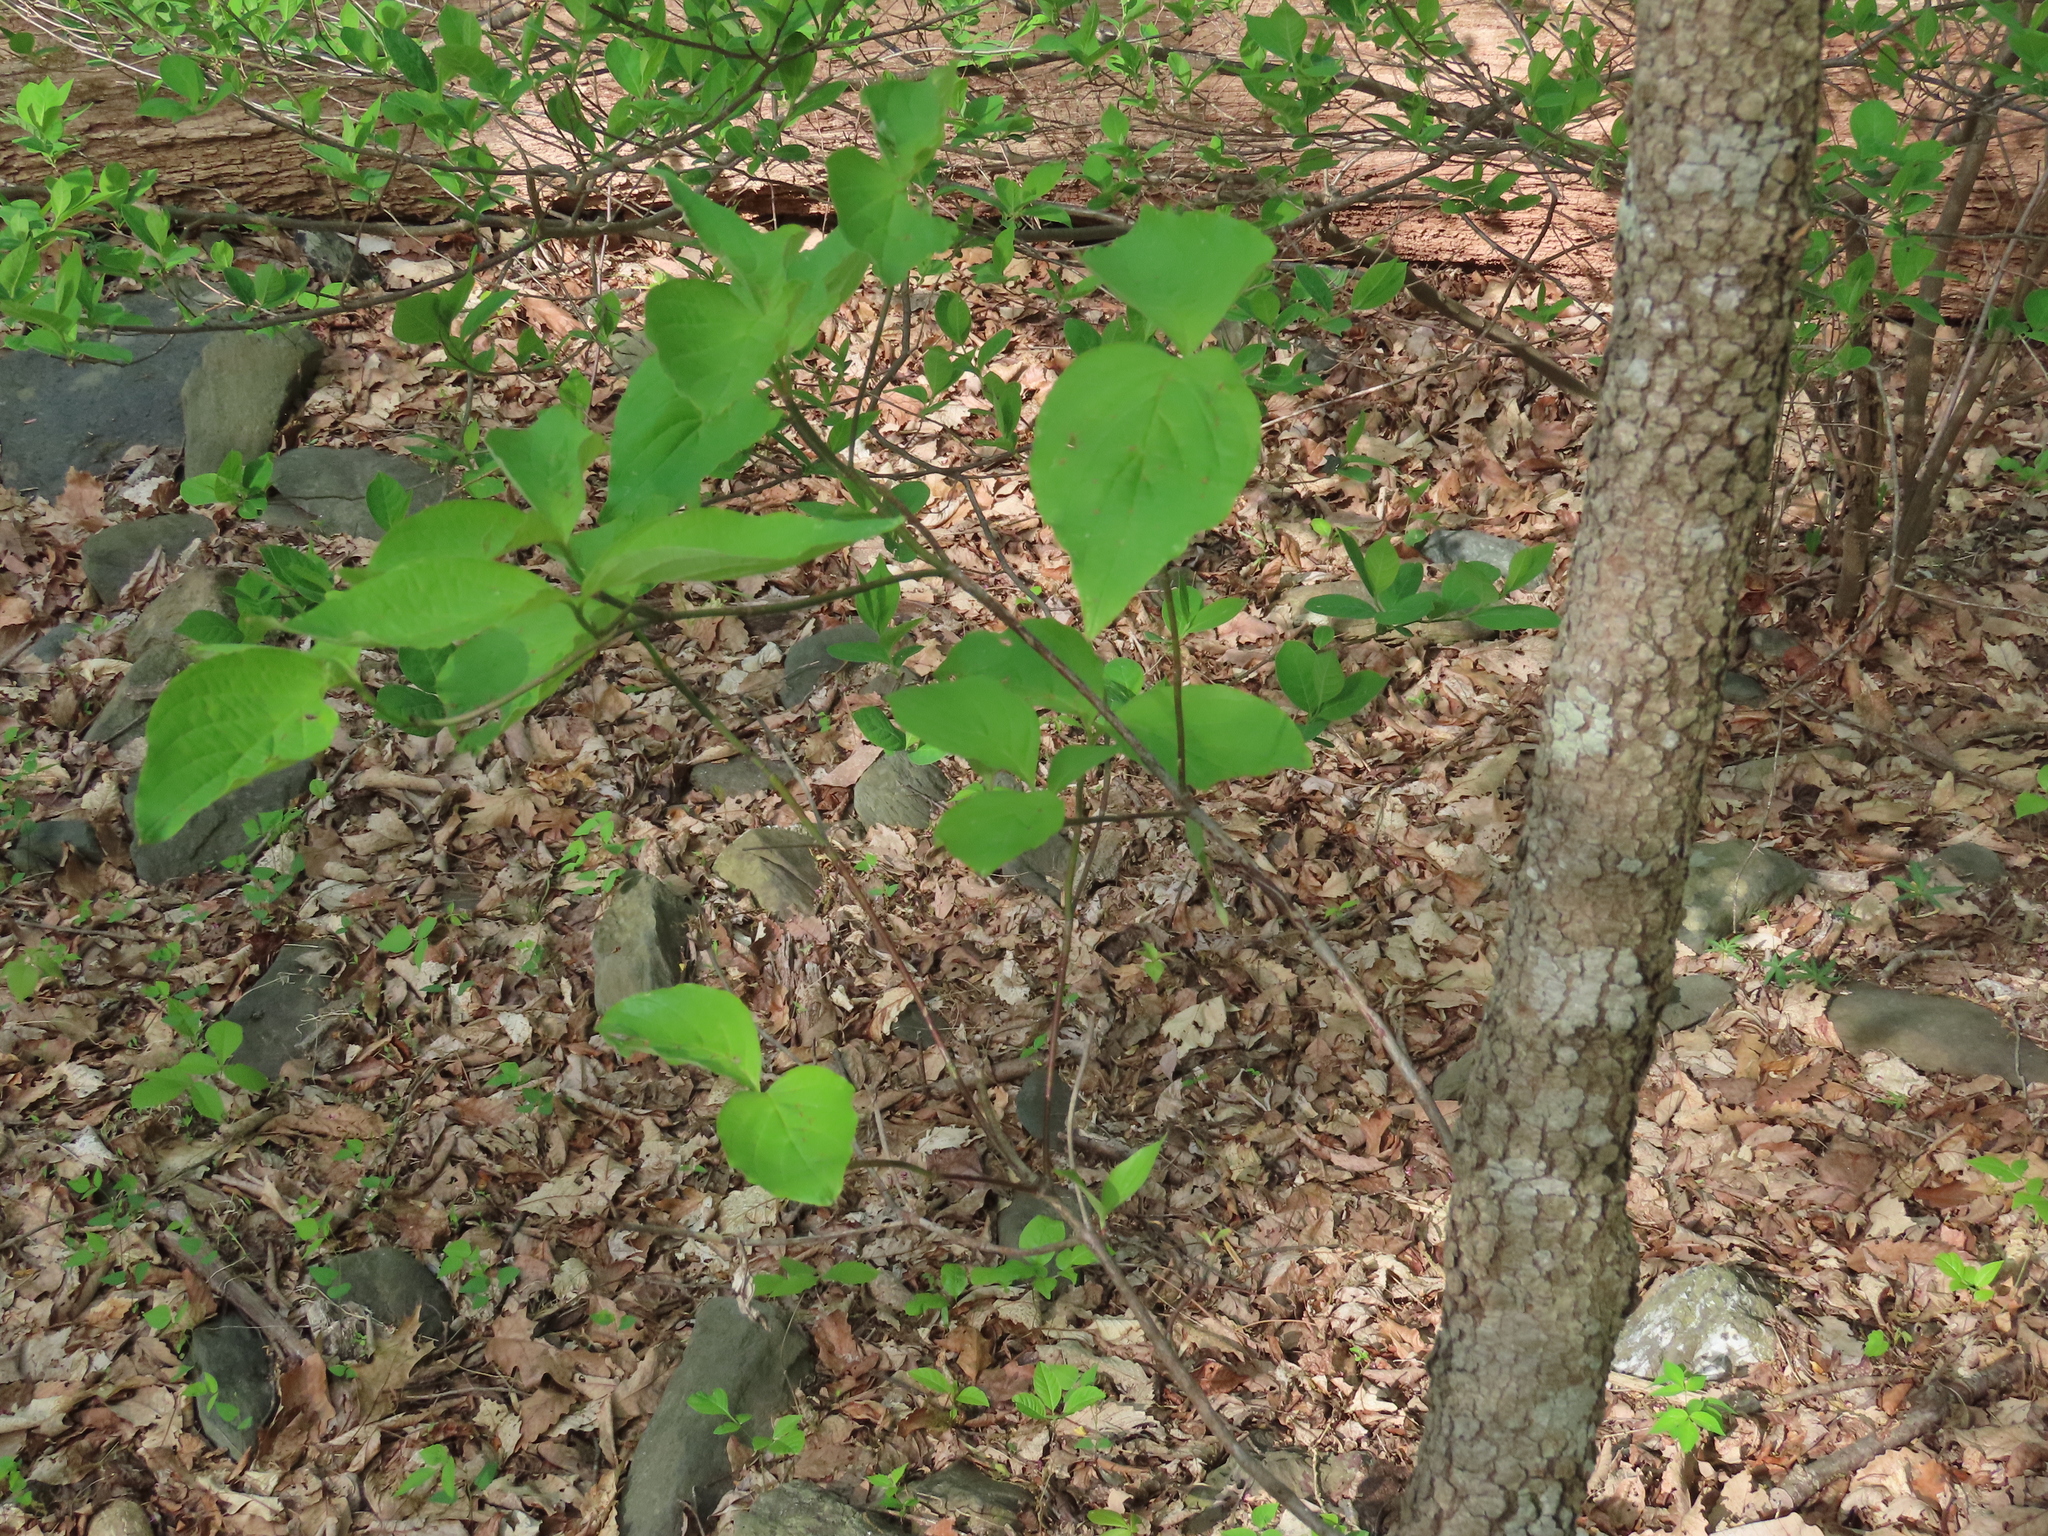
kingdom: Plantae
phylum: Tracheophyta
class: Magnoliopsida
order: Cornales
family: Cornaceae
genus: Cornus
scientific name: Cornus florida
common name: Flowering dogwood
